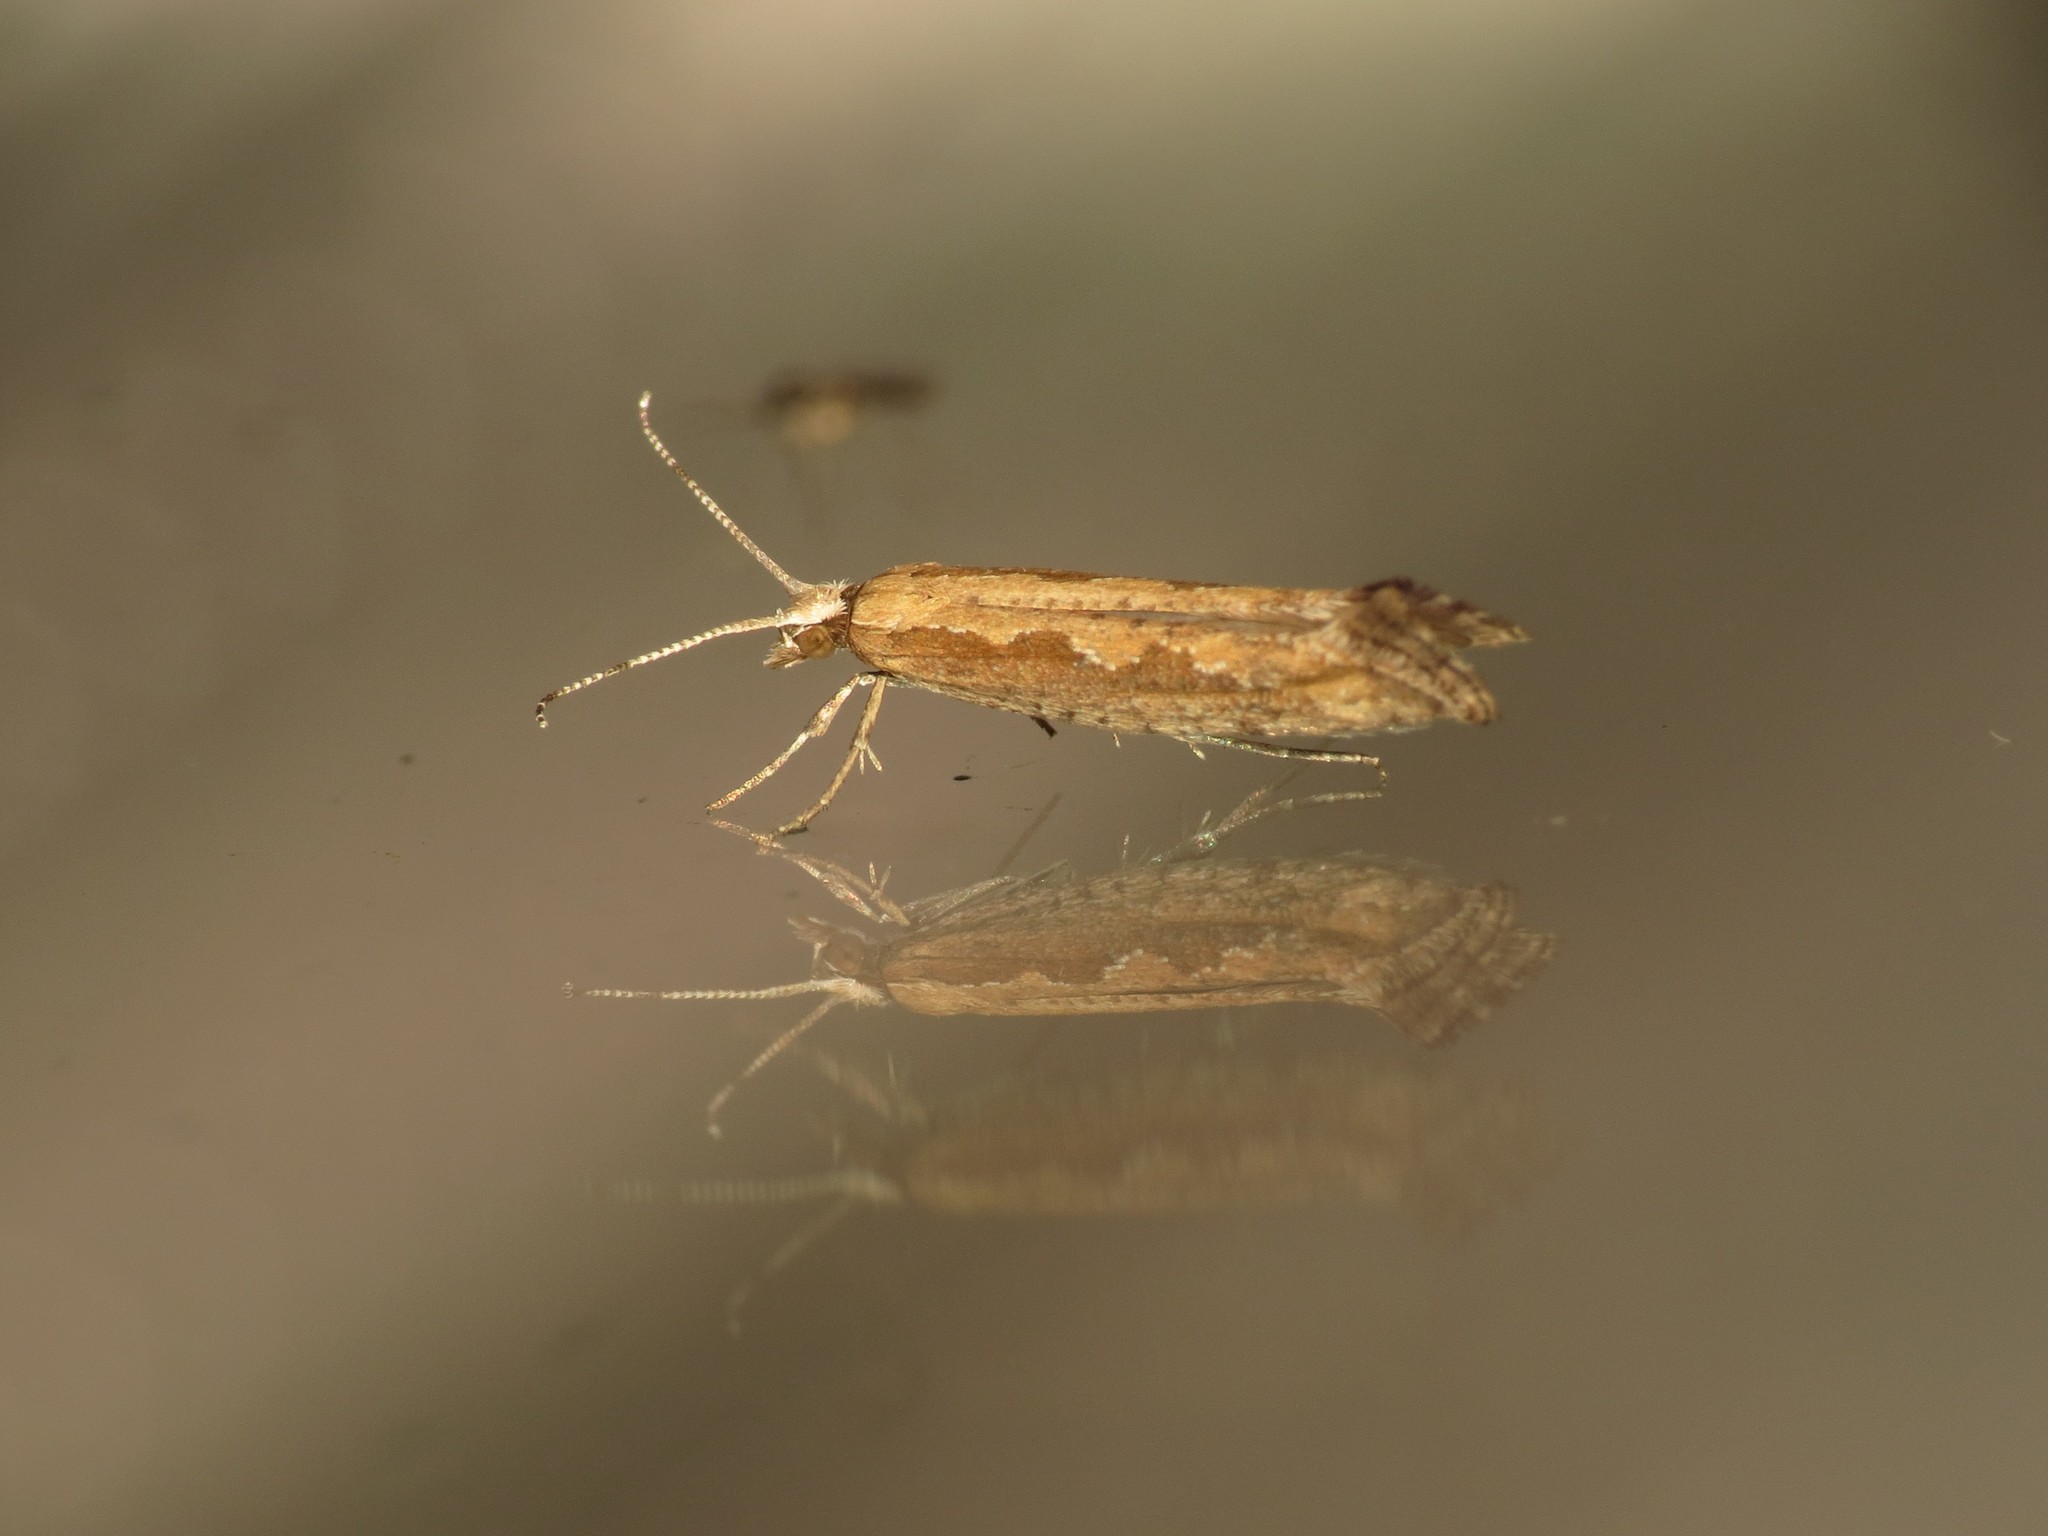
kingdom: Animalia
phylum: Arthropoda
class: Insecta
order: Lepidoptera
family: Plutellidae
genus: Plutella
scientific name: Plutella xylostella
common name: Diamond-back moth
